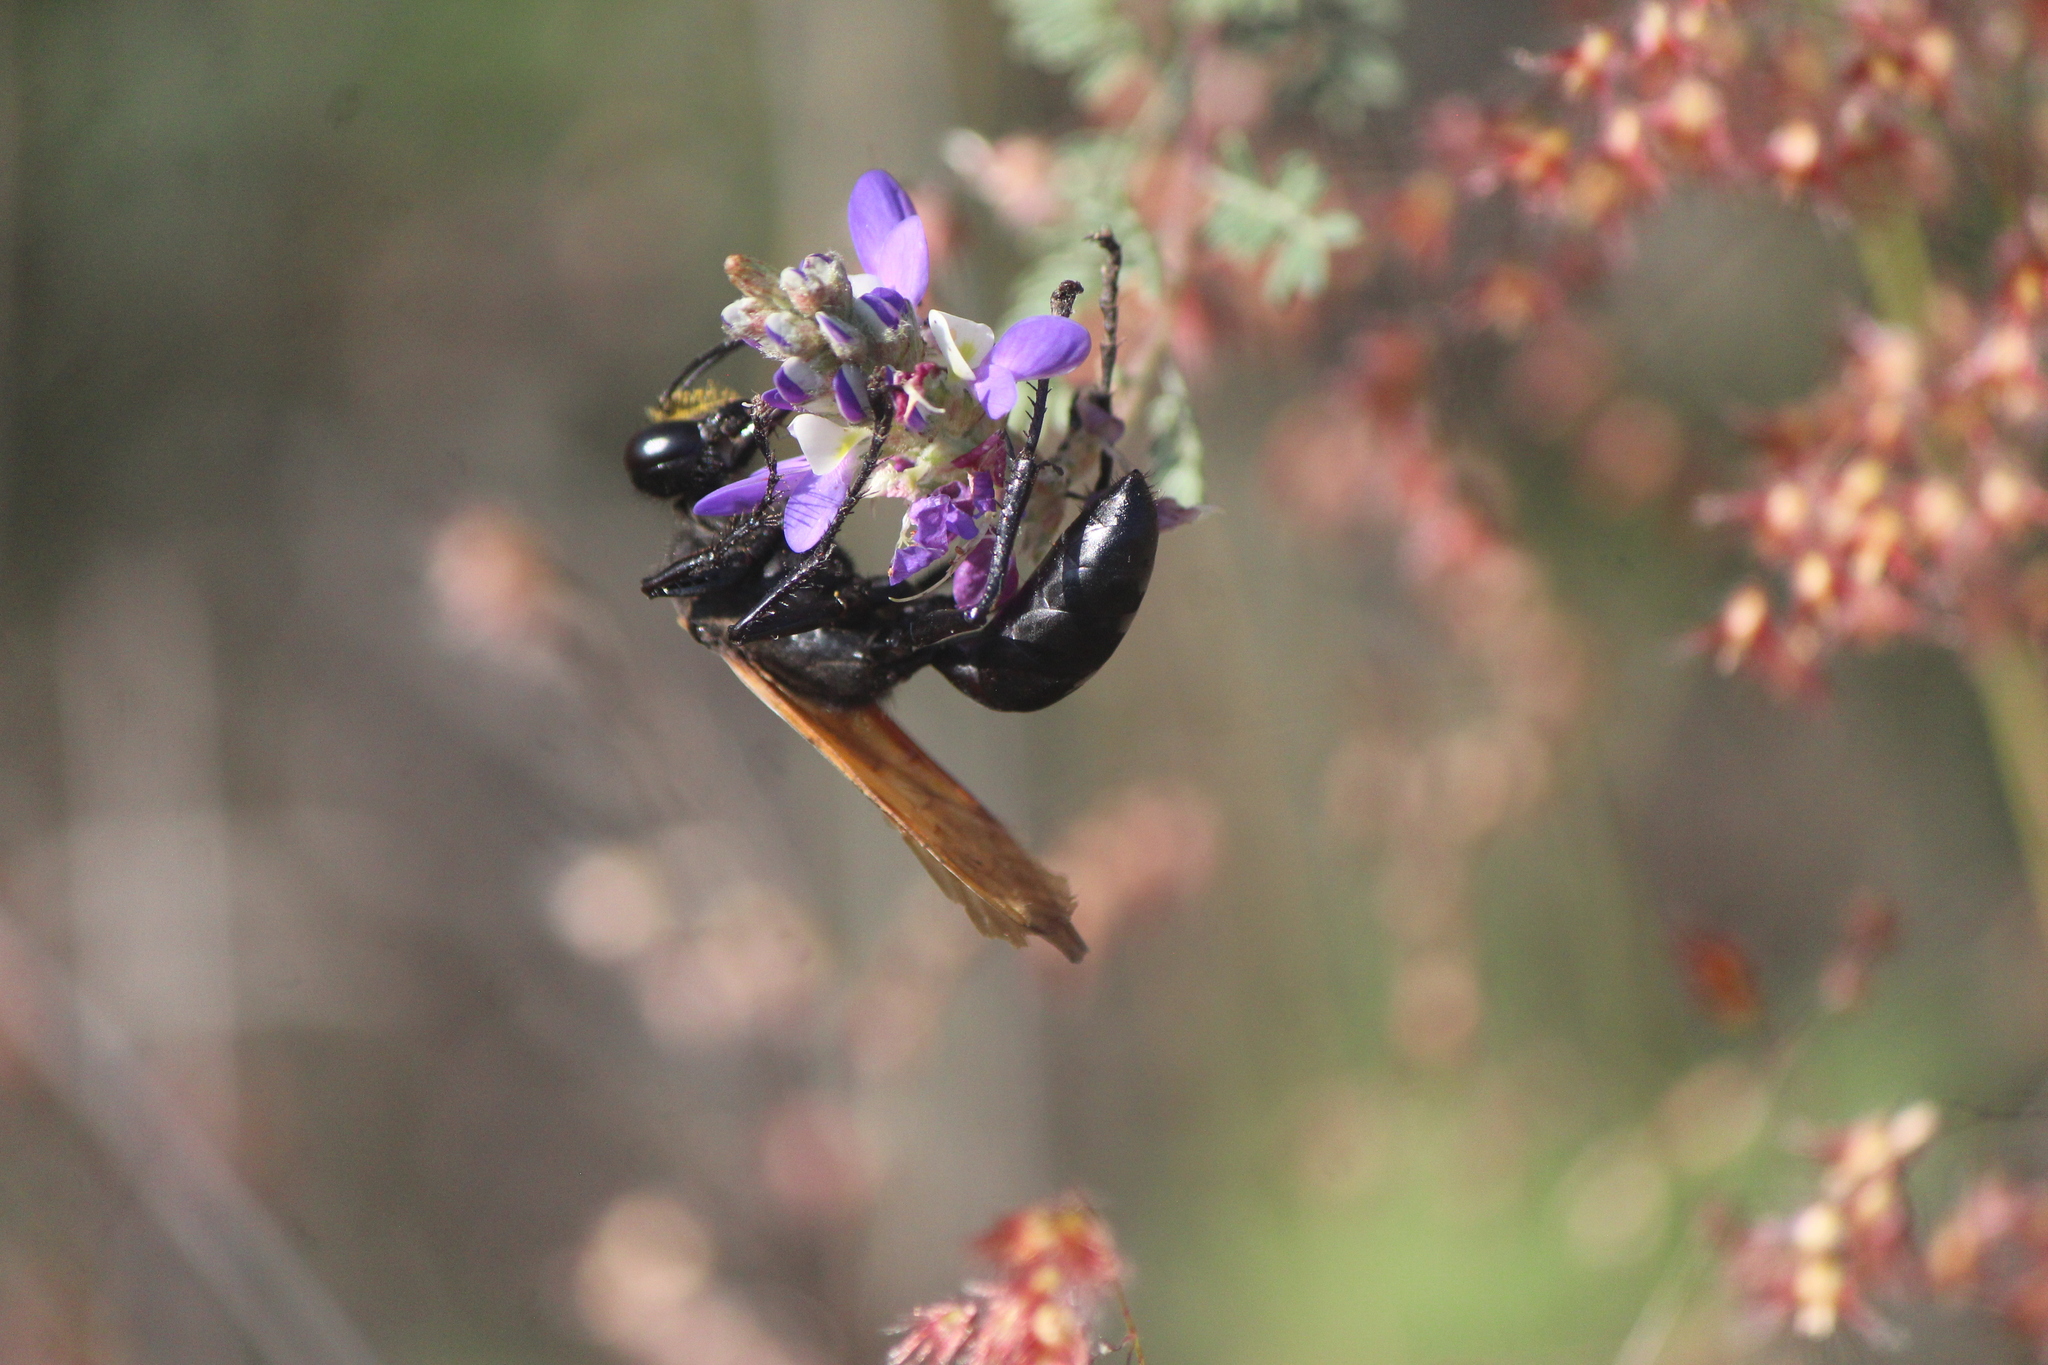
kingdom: Animalia
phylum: Arthropoda
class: Insecta
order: Hymenoptera
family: Sphecidae
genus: Sphex
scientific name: Sphex tepanecus
